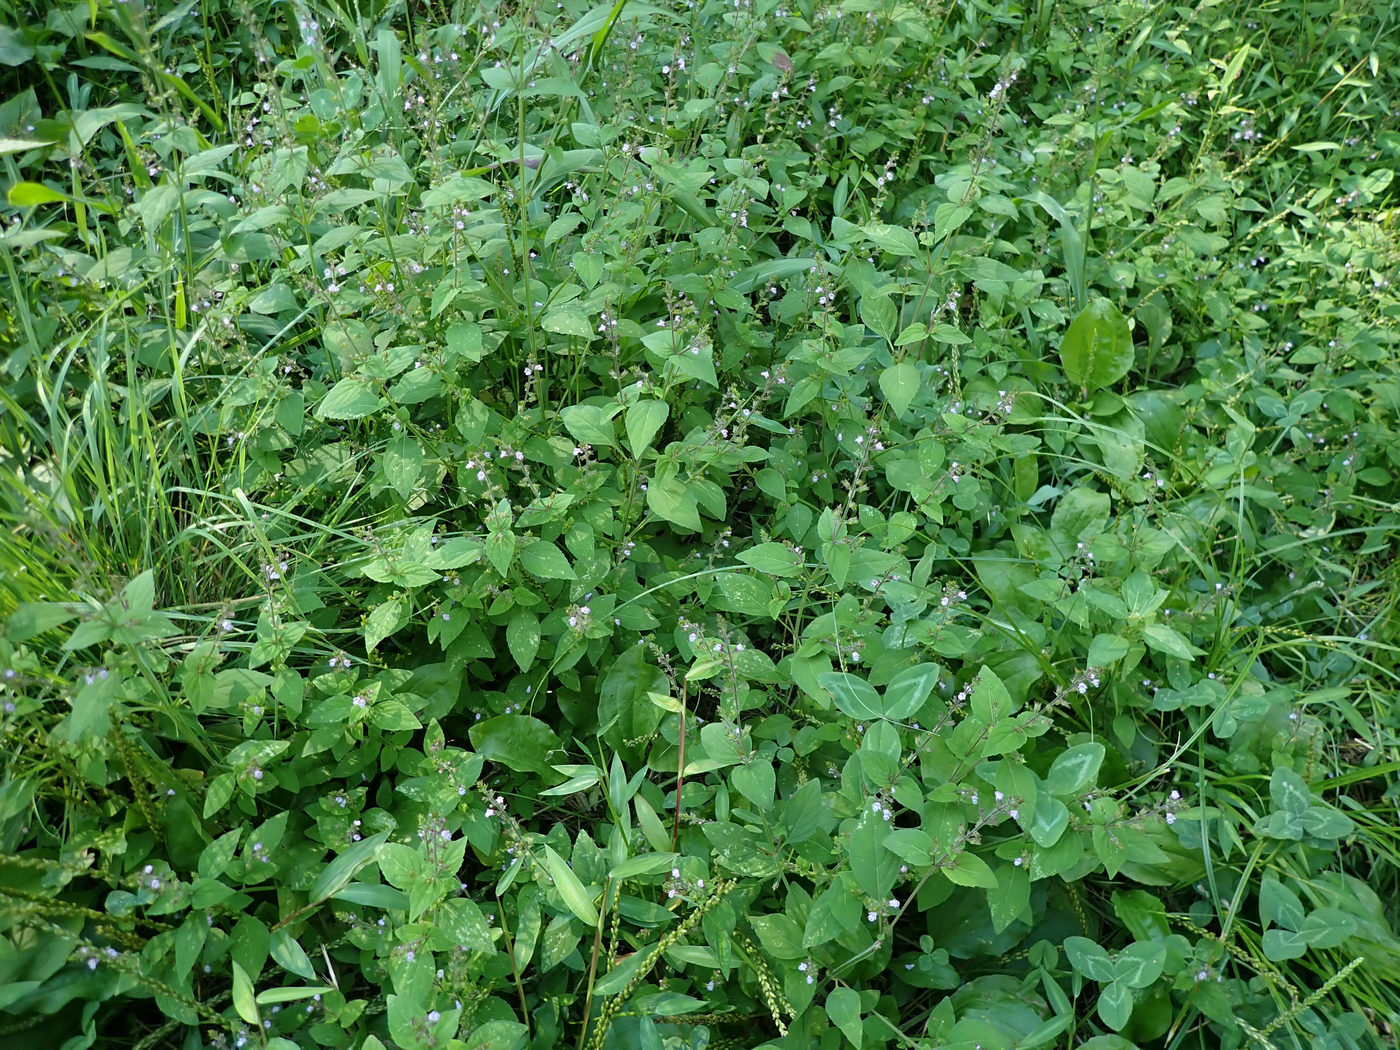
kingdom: Plantae
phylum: Tracheophyta
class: Magnoliopsida
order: Lamiales
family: Lamiaceae
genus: Mosla
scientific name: Mosla dianthera
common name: Miniature beefsteakplant
